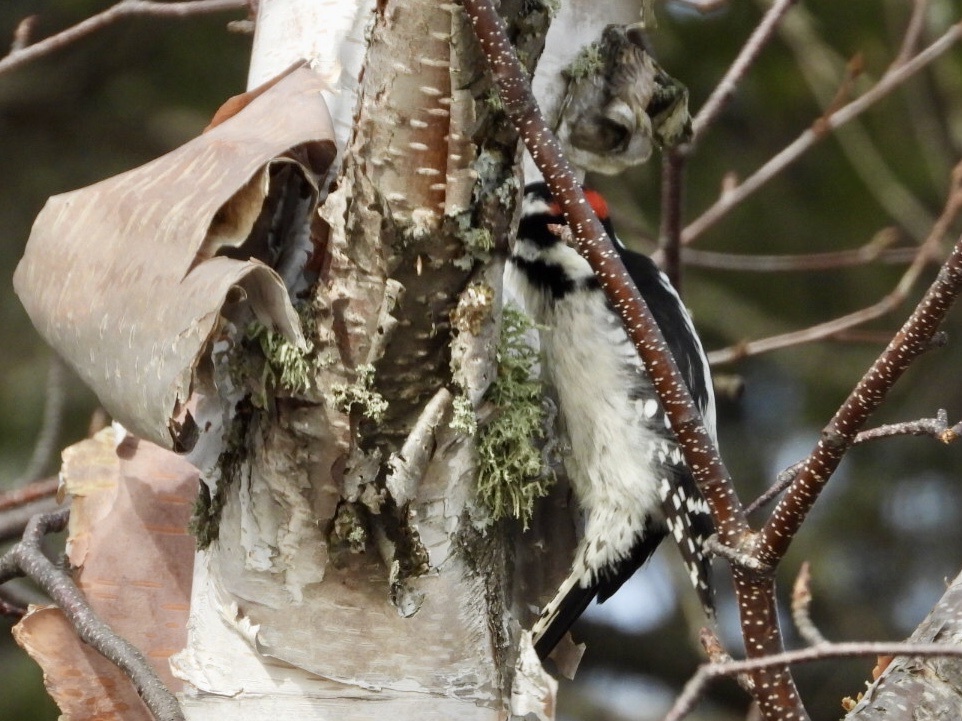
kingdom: Animalia
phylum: Chordata
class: Aves
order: Piciformes
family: Picidae
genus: Dryobates
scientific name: Dryobates pubescens
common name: Downy woodpecker
